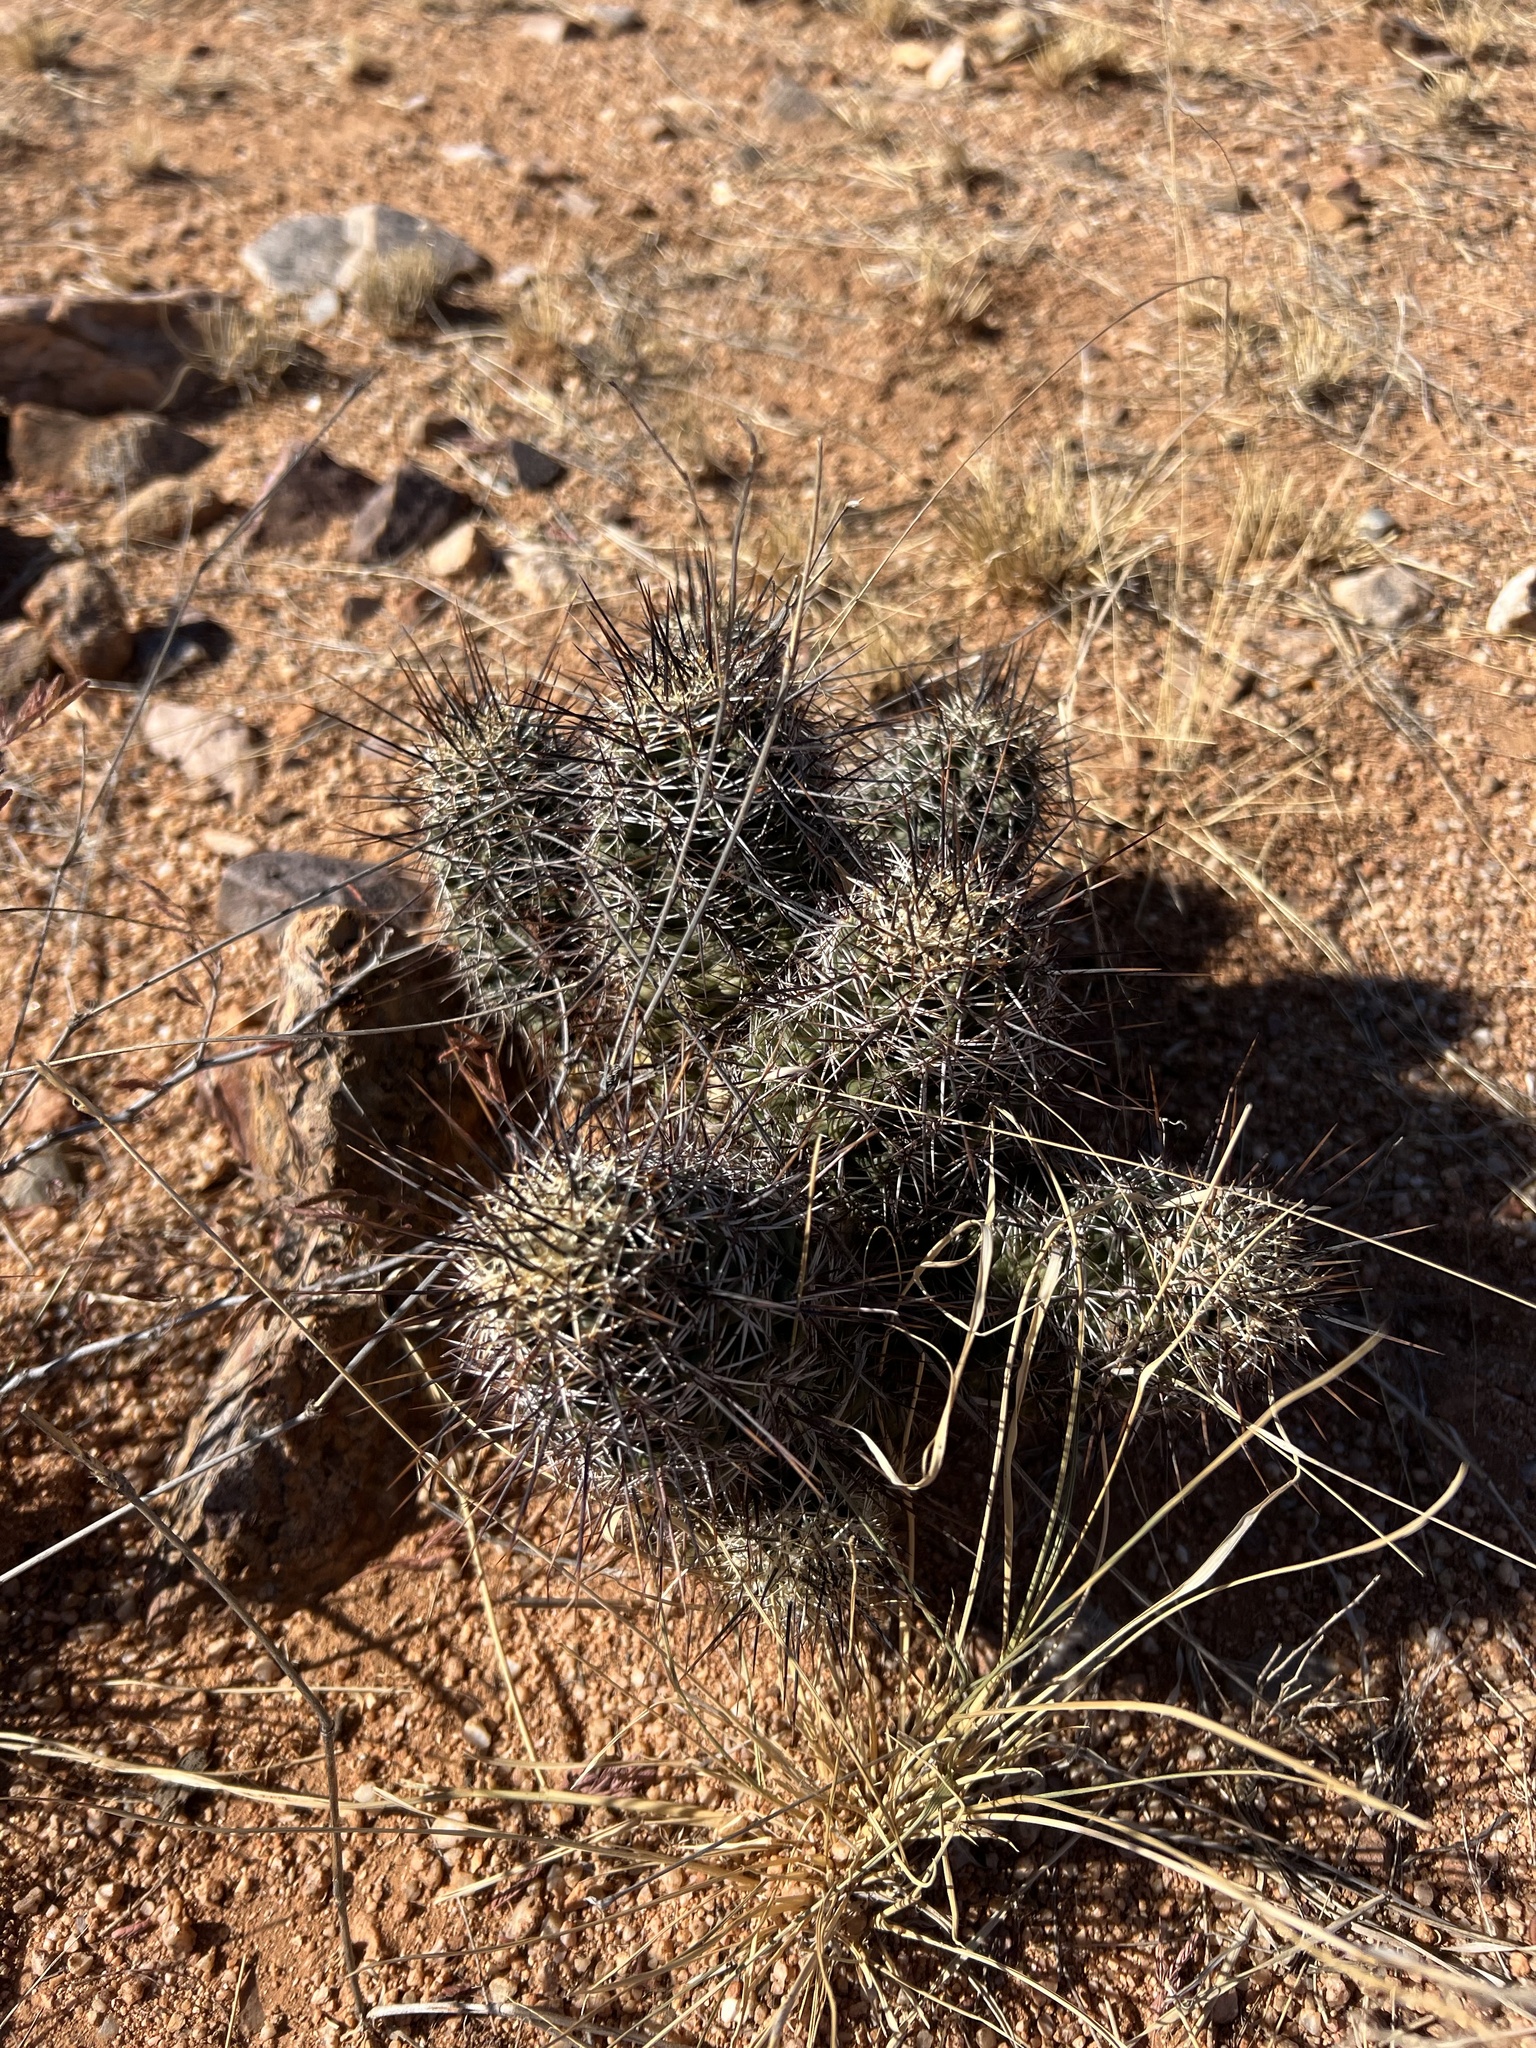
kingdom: Plantae
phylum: Tracheophyta
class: Magnoliopsida
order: Caryophyllales
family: Cactaceae
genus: Echinocereus
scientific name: Echinocereus fasciculatus
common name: Bundle hedgehog
